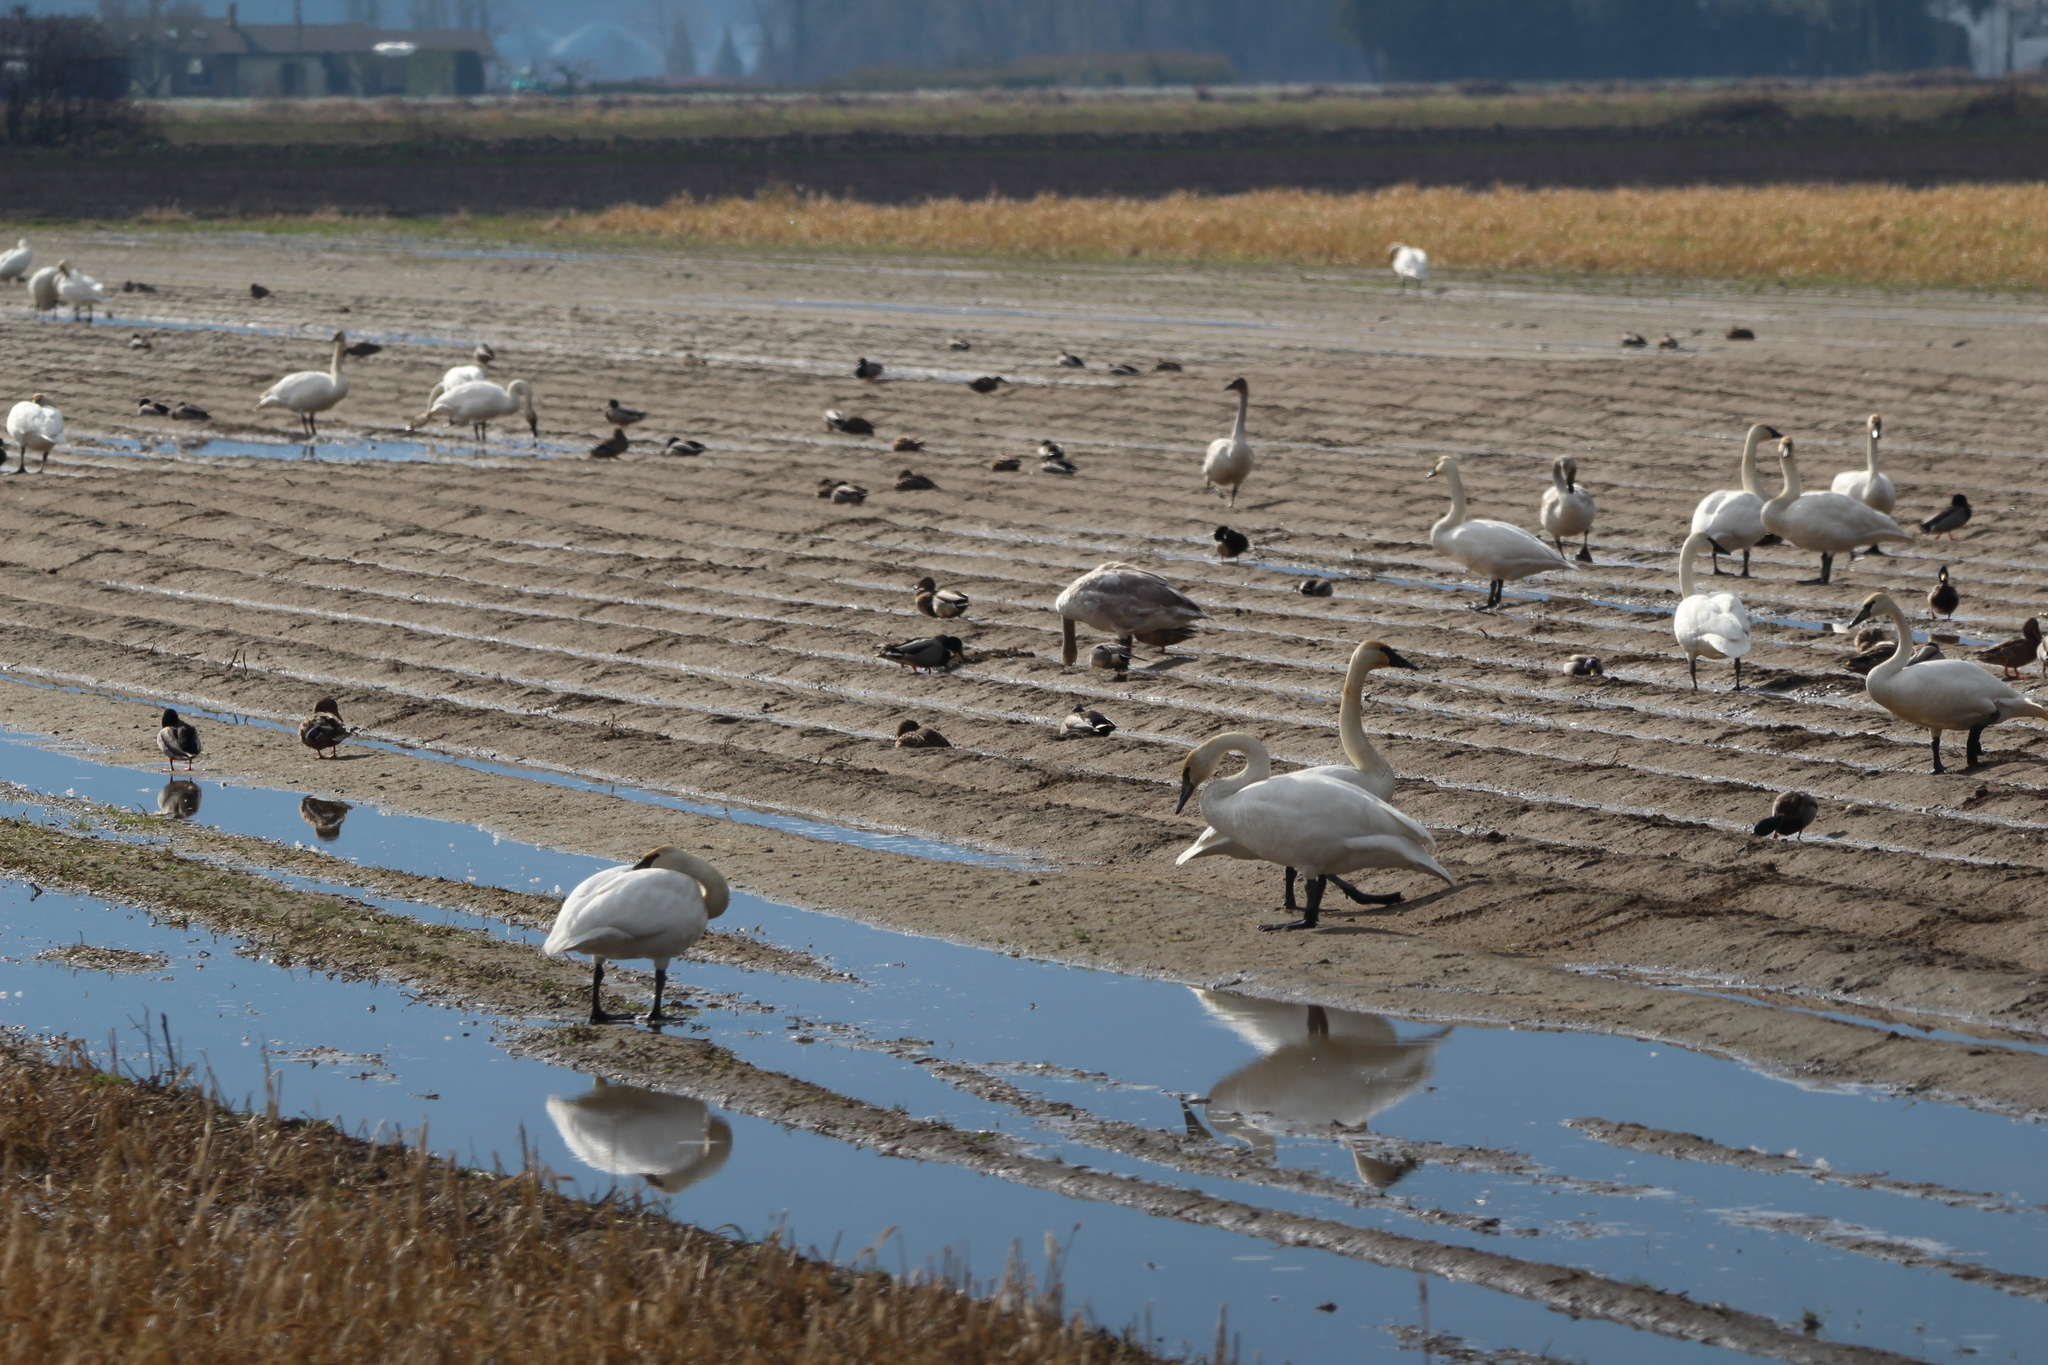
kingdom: Animalia
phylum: Chordata
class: Aves
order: Anseriformes
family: Anatidae
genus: Cygnus
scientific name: Cygnus buccinator
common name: Trumpeter swan
